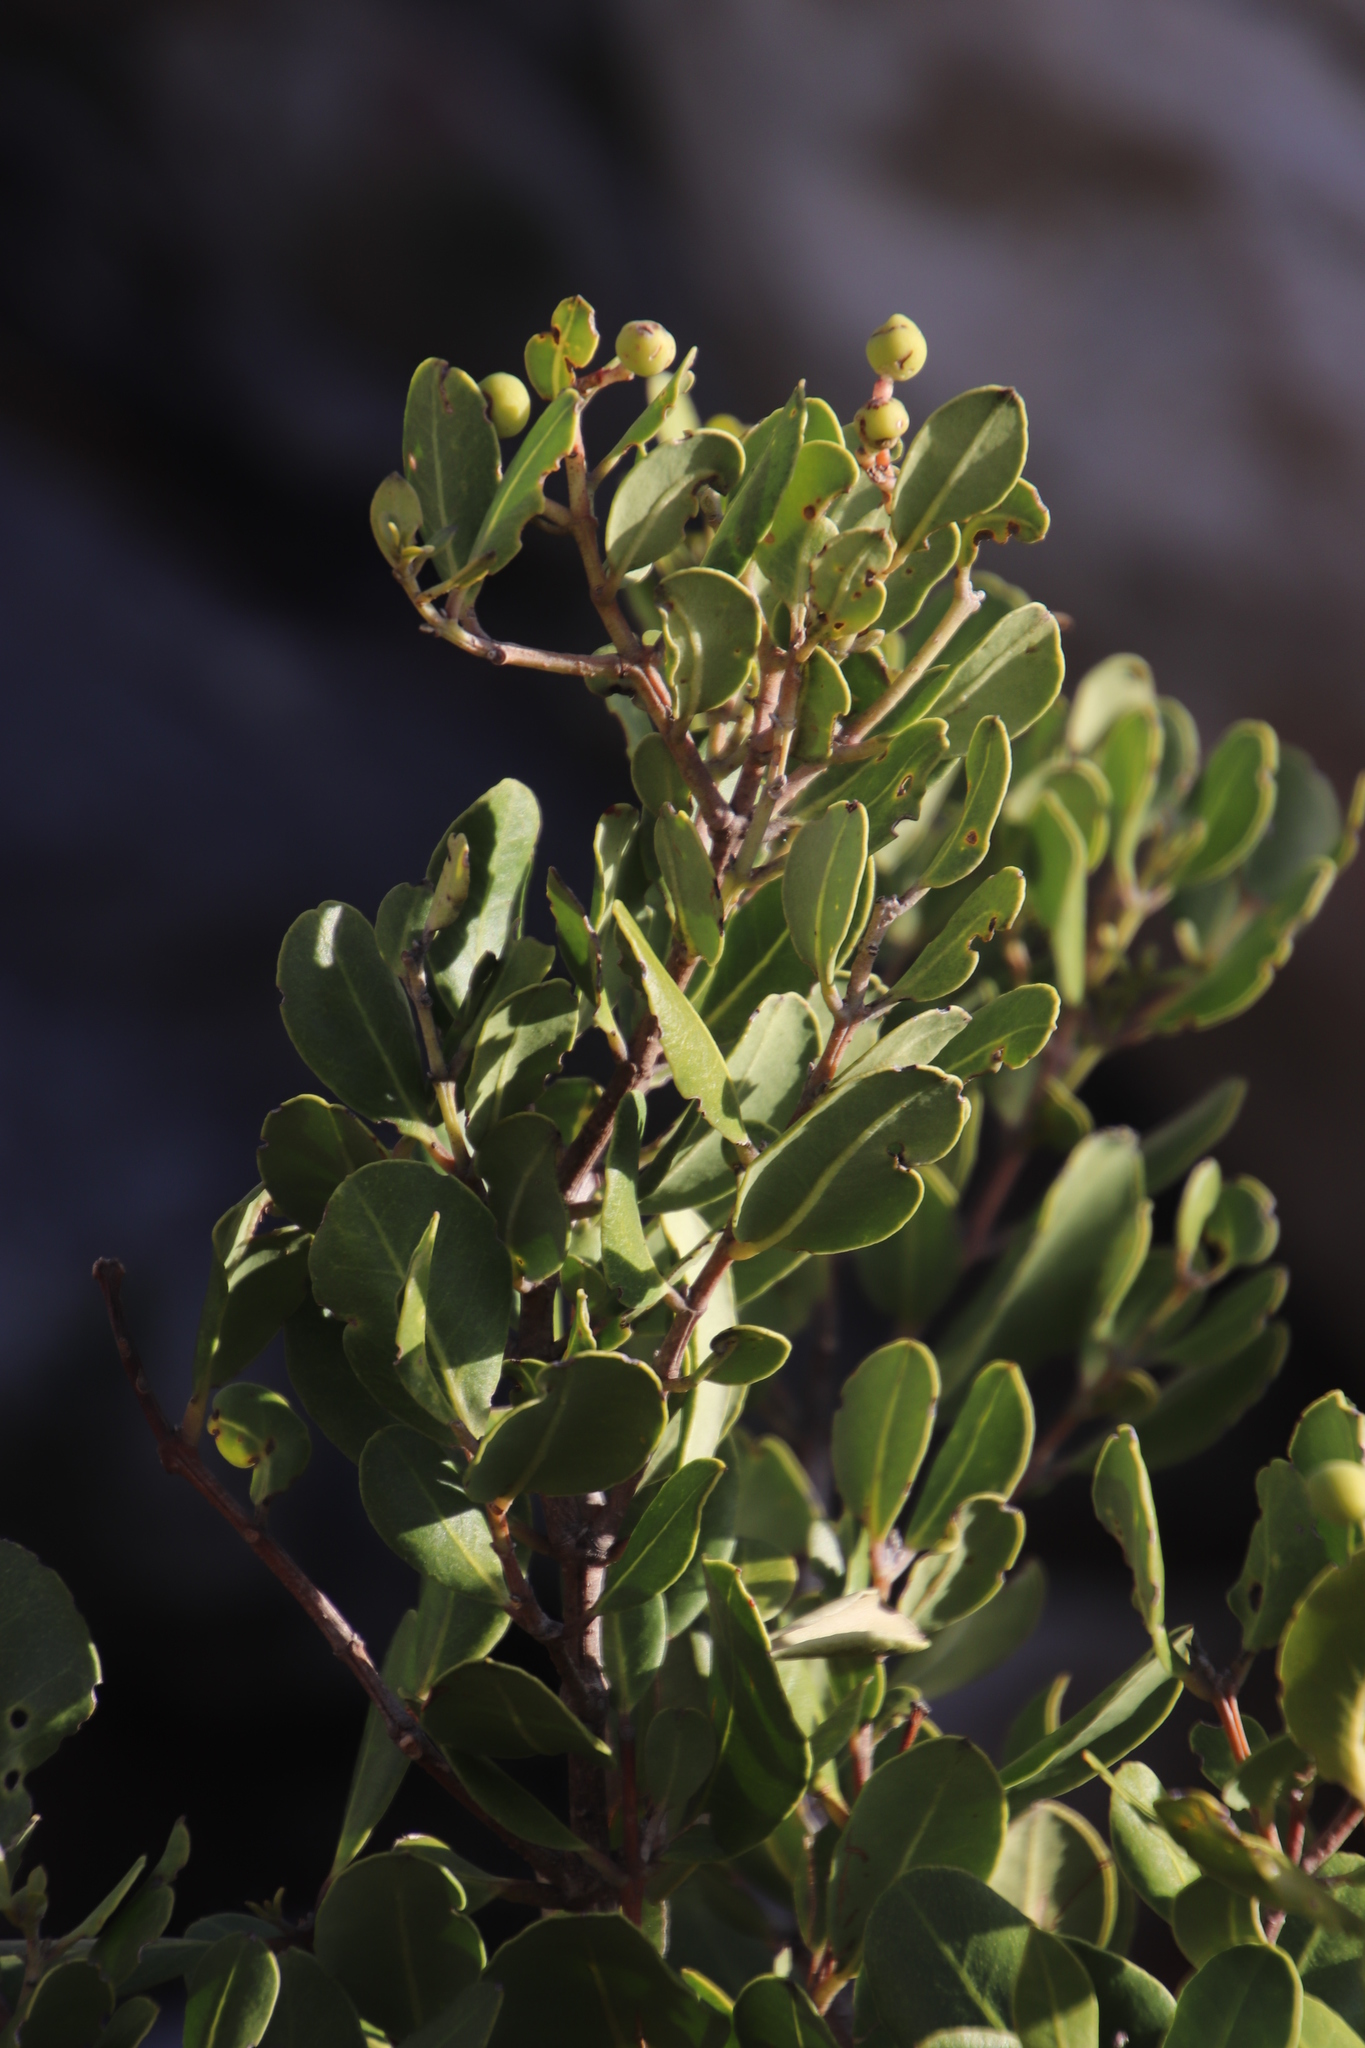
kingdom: Plantae
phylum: Tracheophyta
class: Magnoliopsida
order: Lamiales
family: Oleaceae
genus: Olea
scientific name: Olea capensis
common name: Black ironwood
